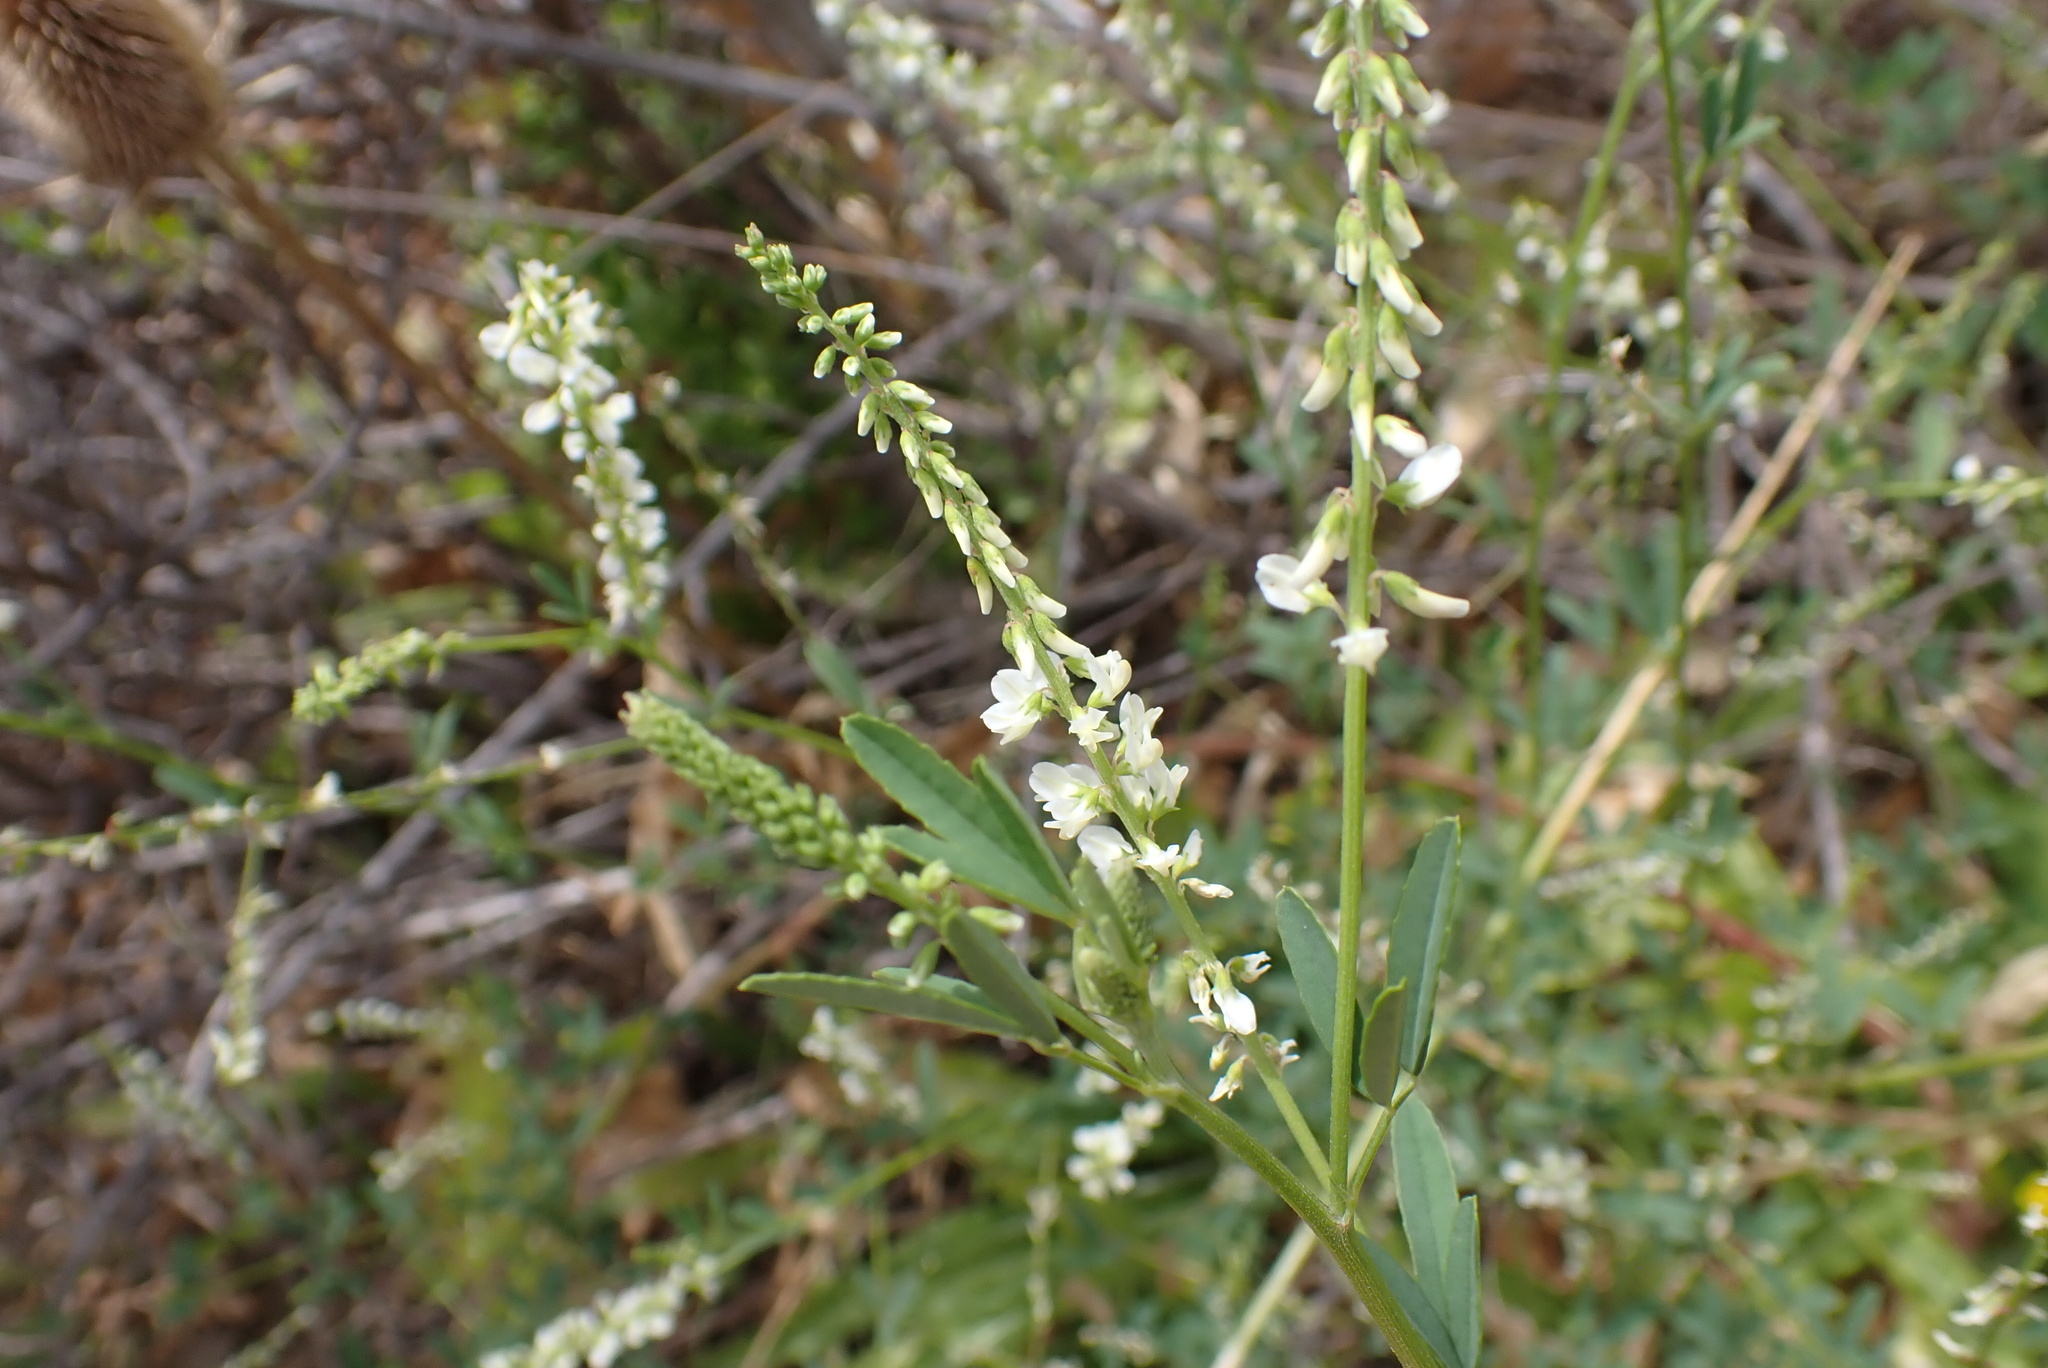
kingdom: Plantae
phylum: Tracheophyta
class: Magnoliopsida
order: Fabales
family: Fabaceae
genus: Melilotus
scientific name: Melilotus albus
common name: White melilot
